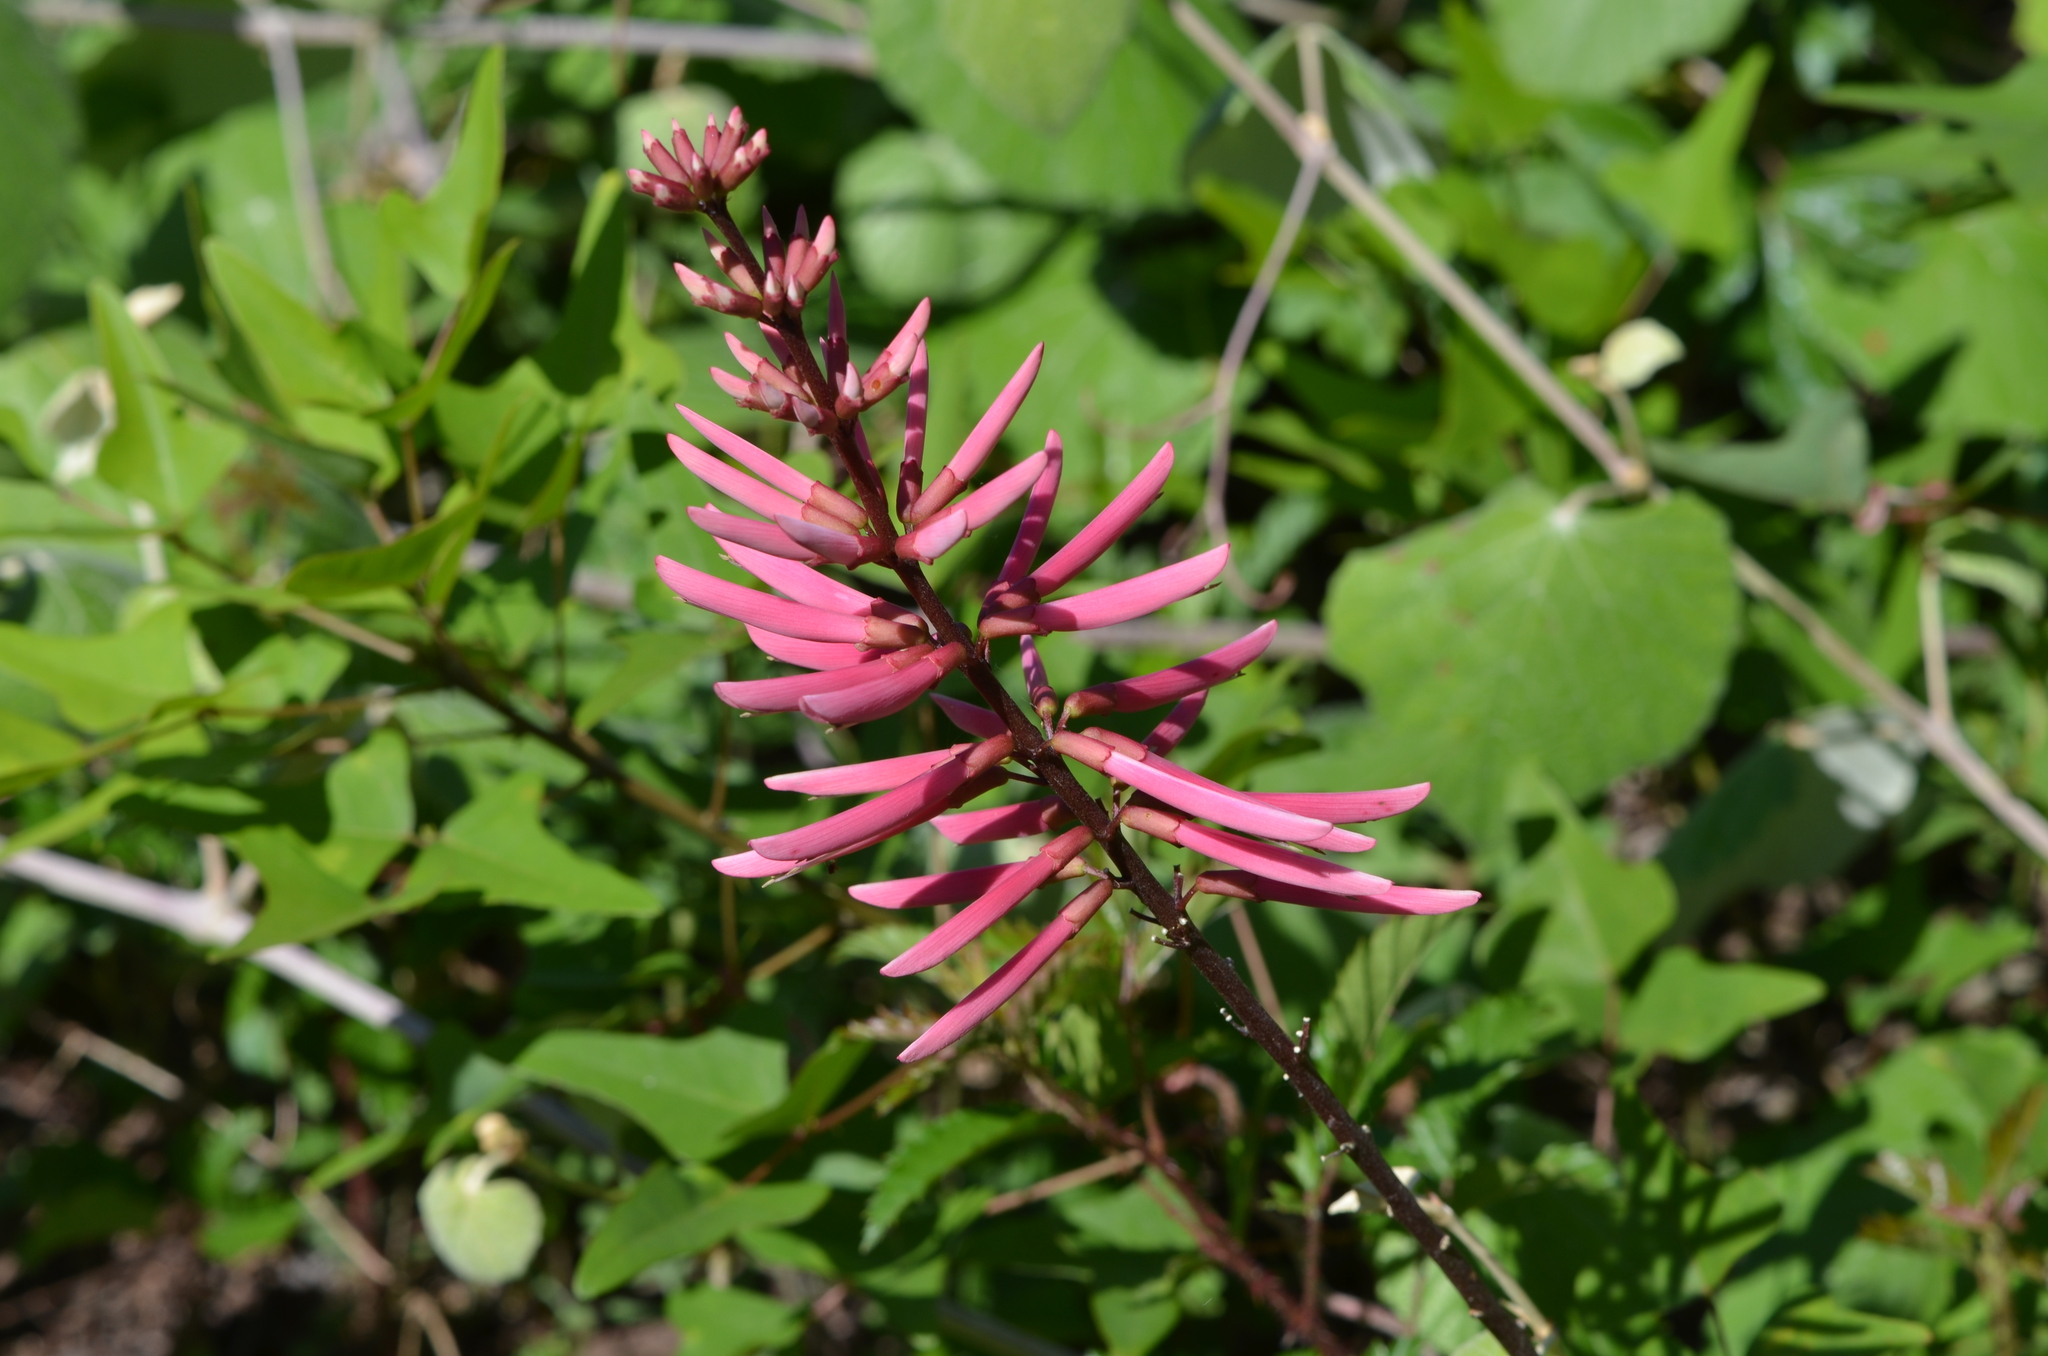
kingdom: Plantae
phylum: Tracheophyta
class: Magnoliopsida
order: Fabales
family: Fabaceae
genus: Erythrina
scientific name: Erythrina herbacea
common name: Coral-bean
